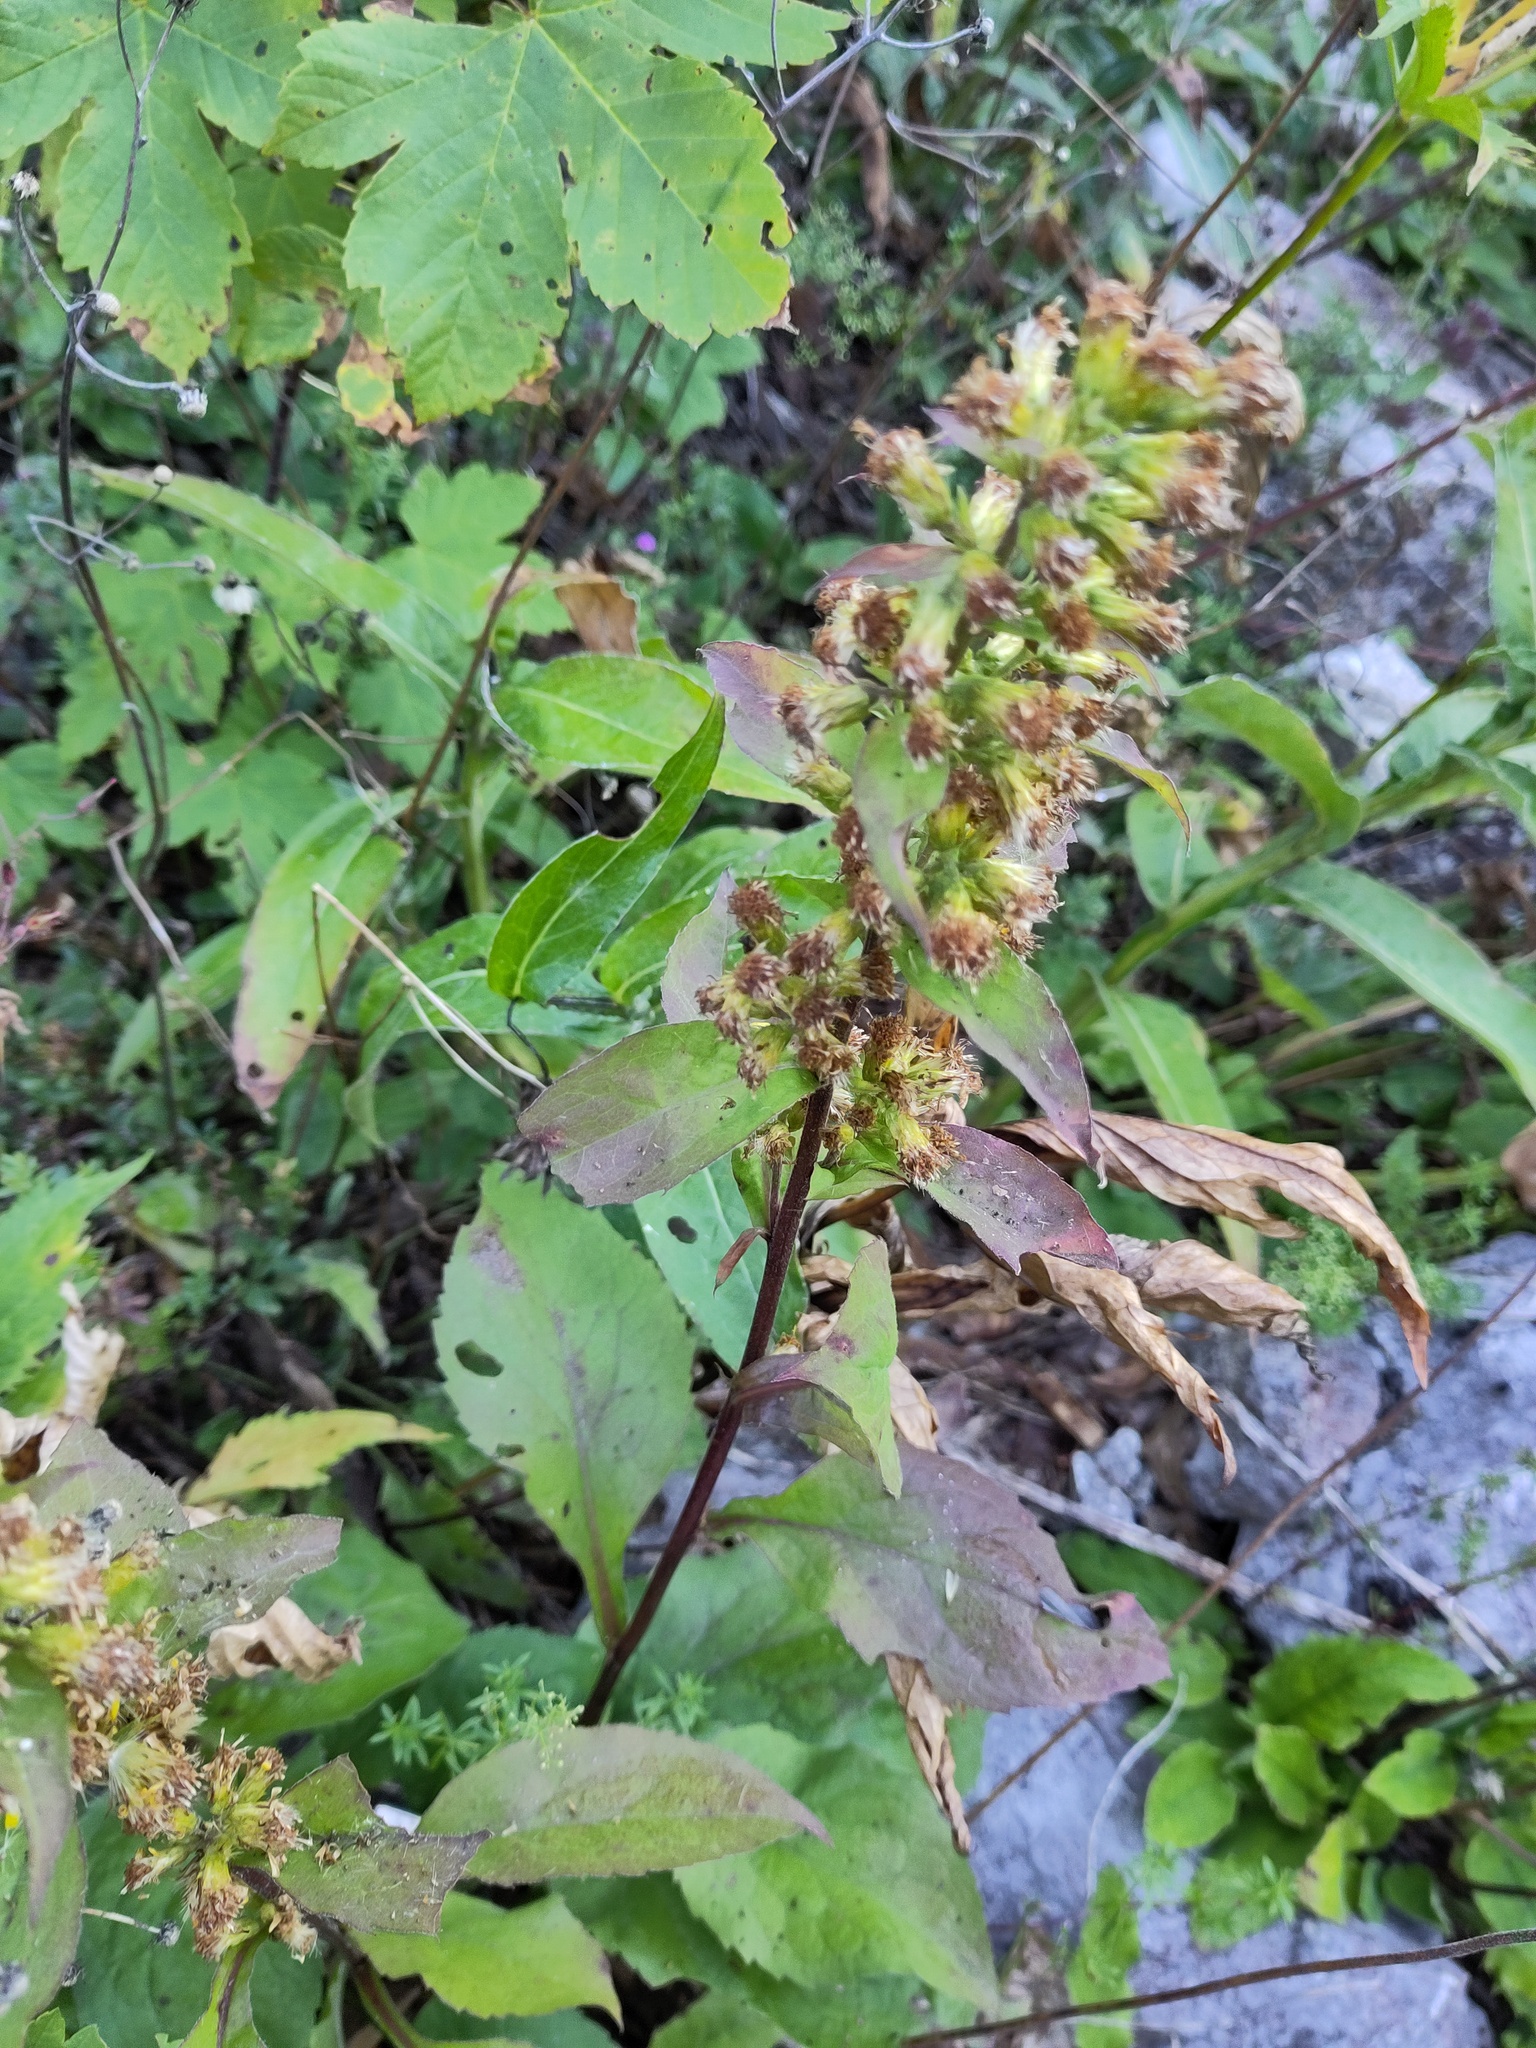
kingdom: Plantae
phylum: Tracheophyta
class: Magnoliopsida
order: Asterales
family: Asteraceae
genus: Solidago
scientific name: Solidago virgaurea
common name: Goldenrod
